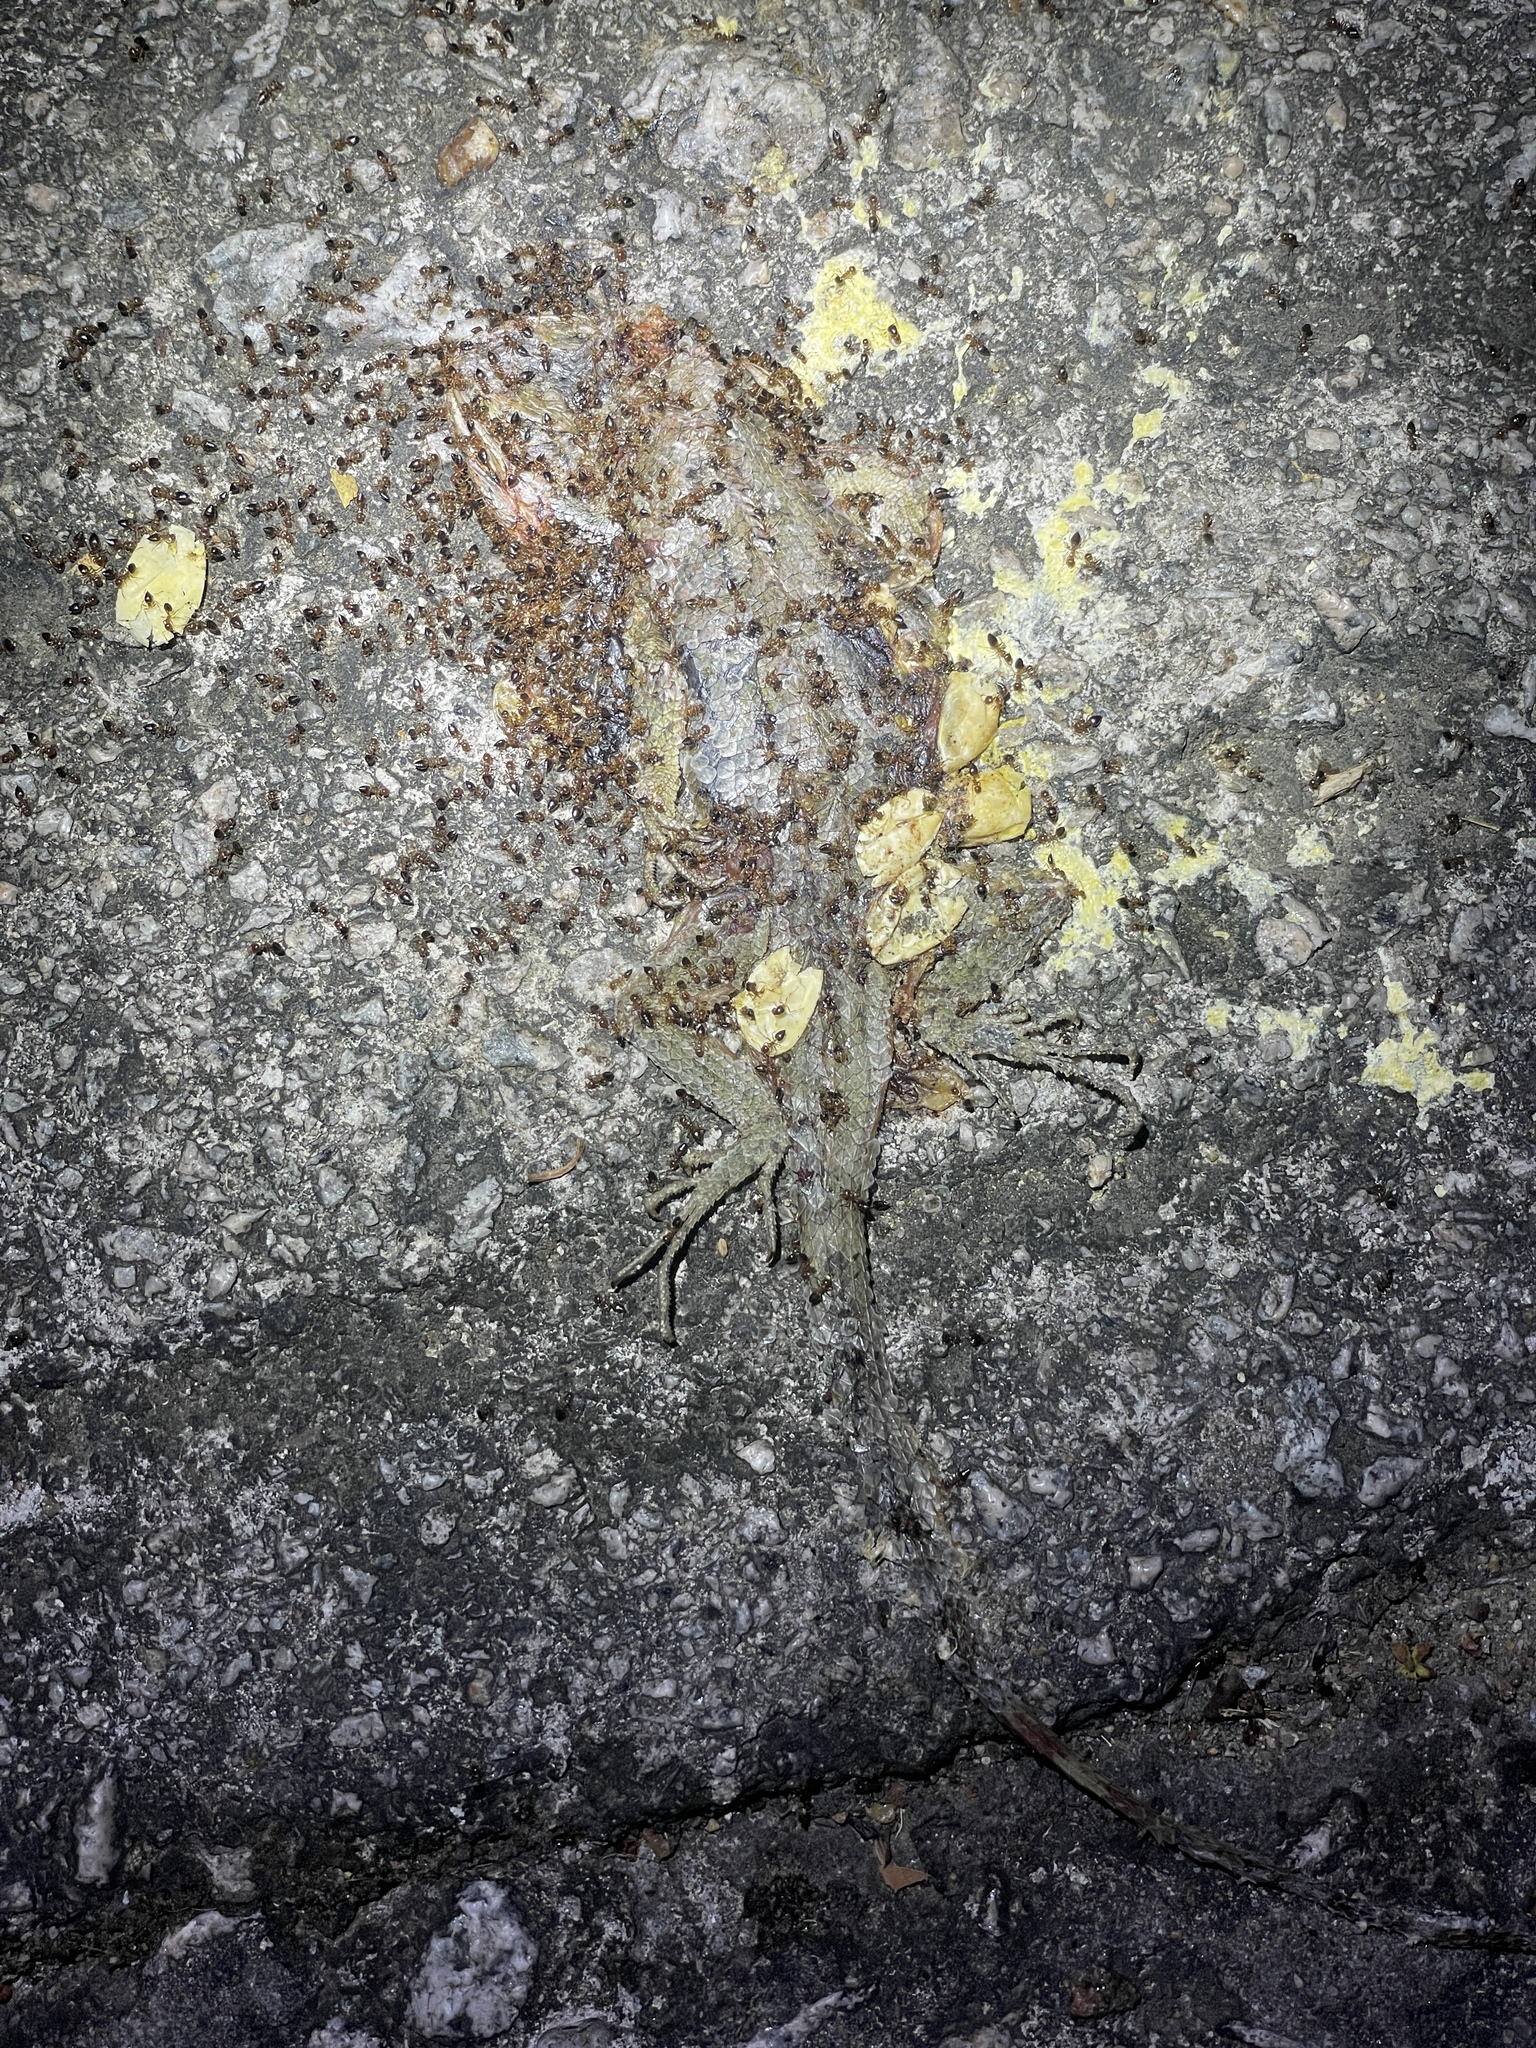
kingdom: Animalia
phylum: Chordata
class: Squamata
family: Agamidae
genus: Calotes
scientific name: Calotes versicolor
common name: Oriental garden lizard
